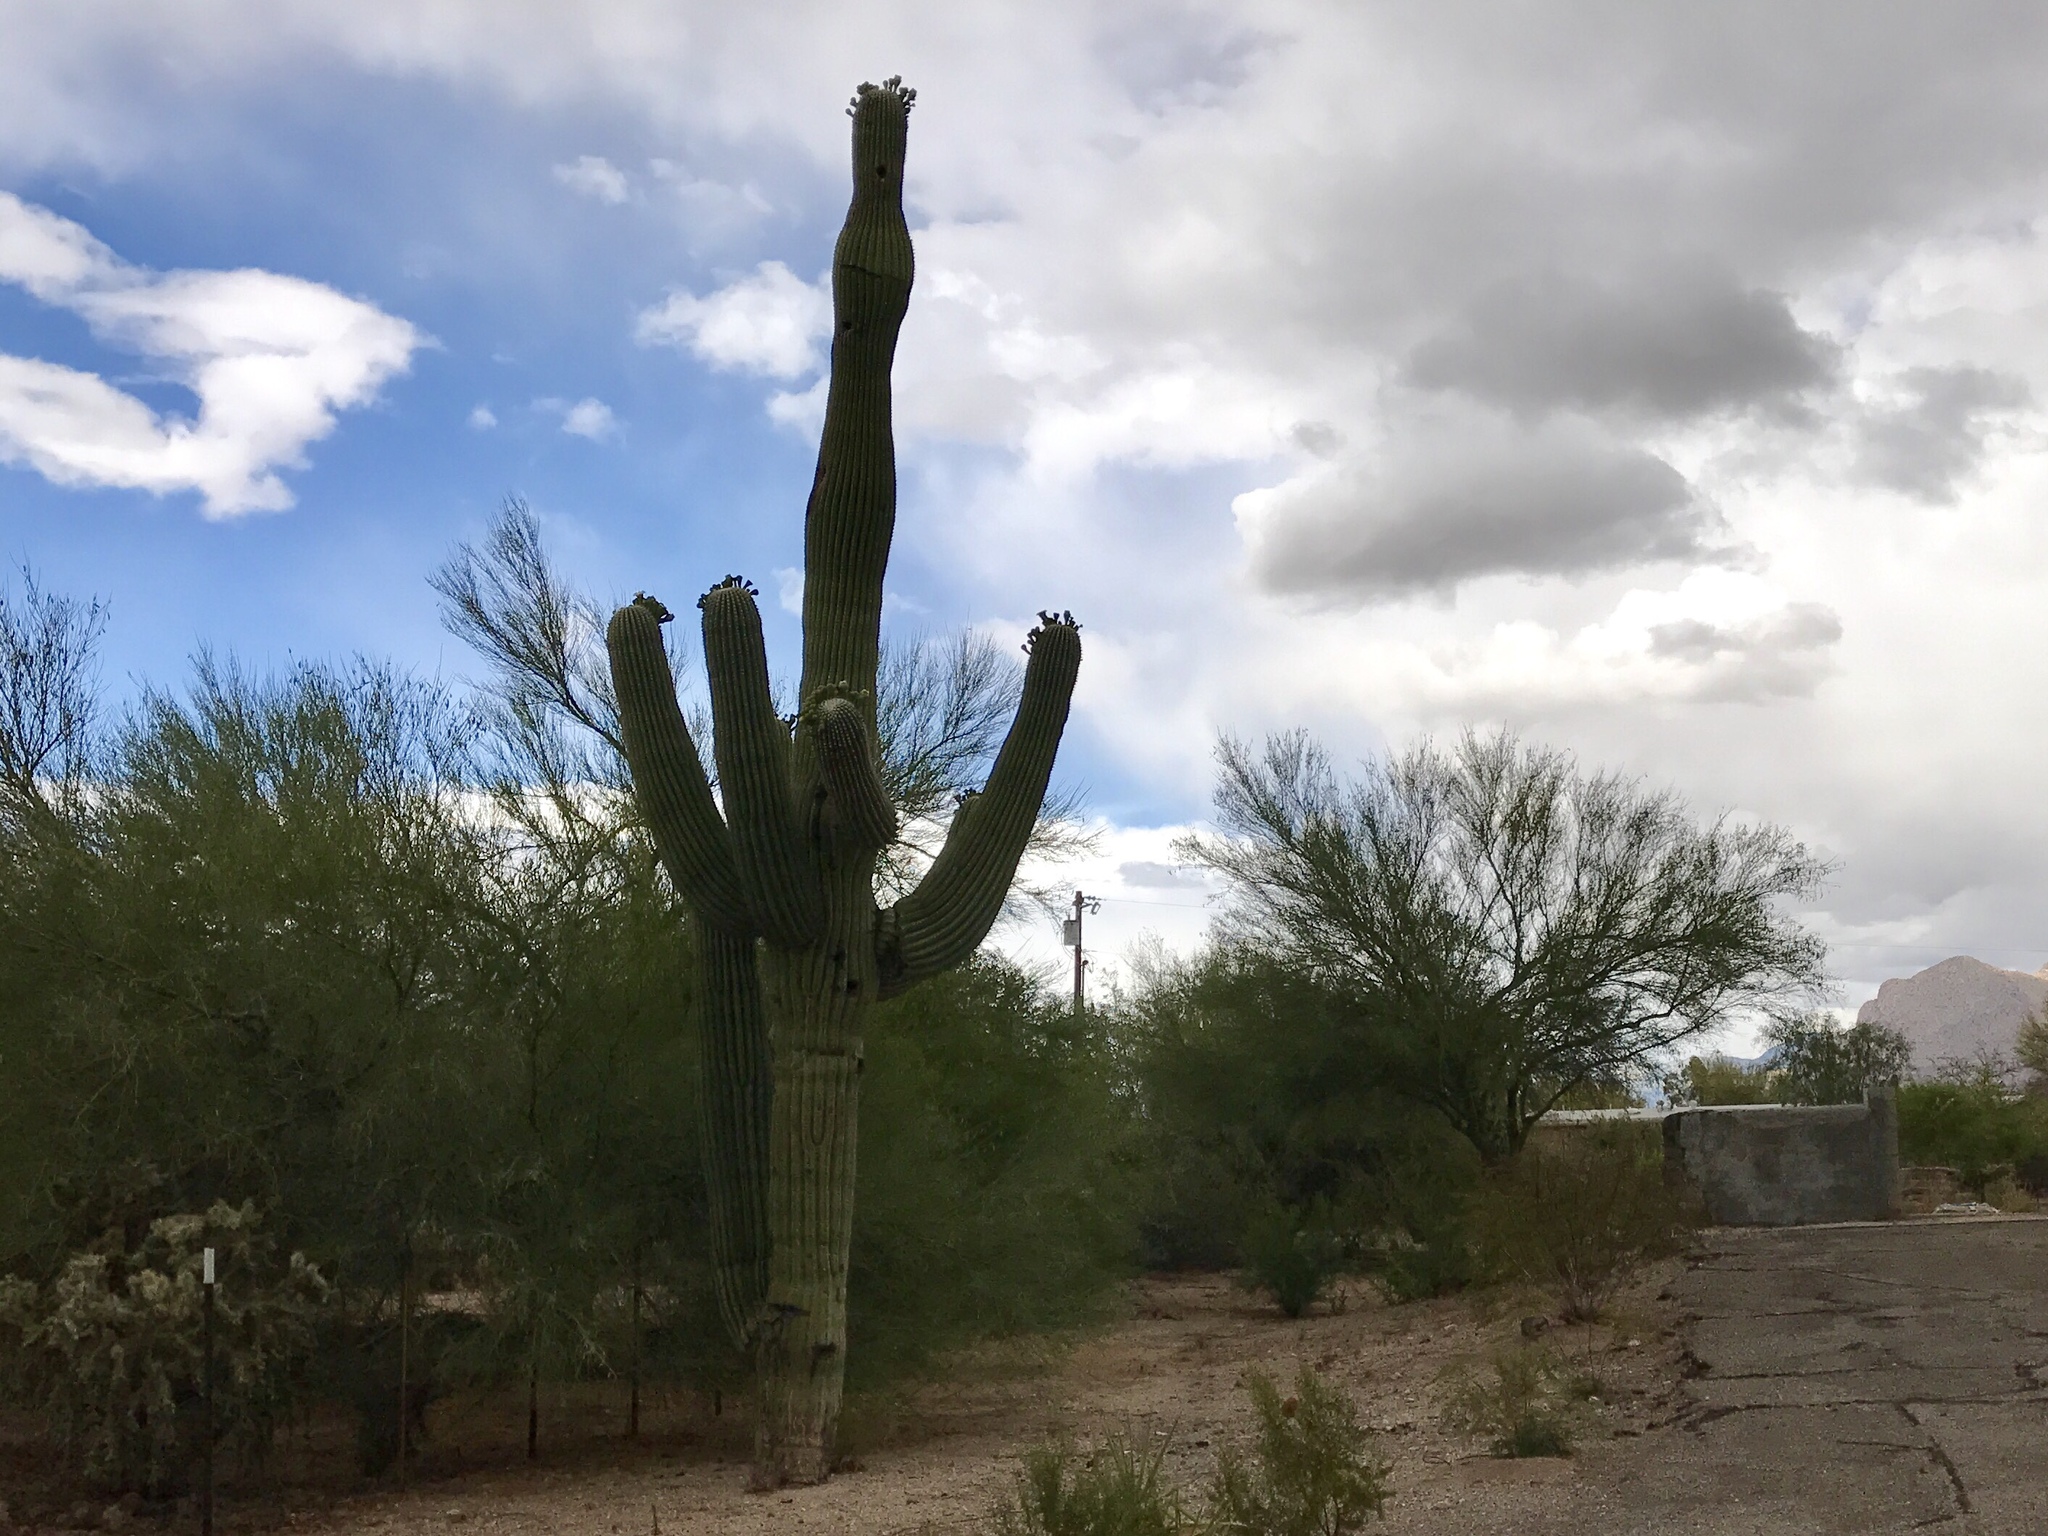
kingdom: Plantae
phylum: Tracheophyta
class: Magnoliopsida
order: Caryophyllales
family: Cactaceae
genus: Carnegiea
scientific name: Carnegiea gigantea
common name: Saguaro
